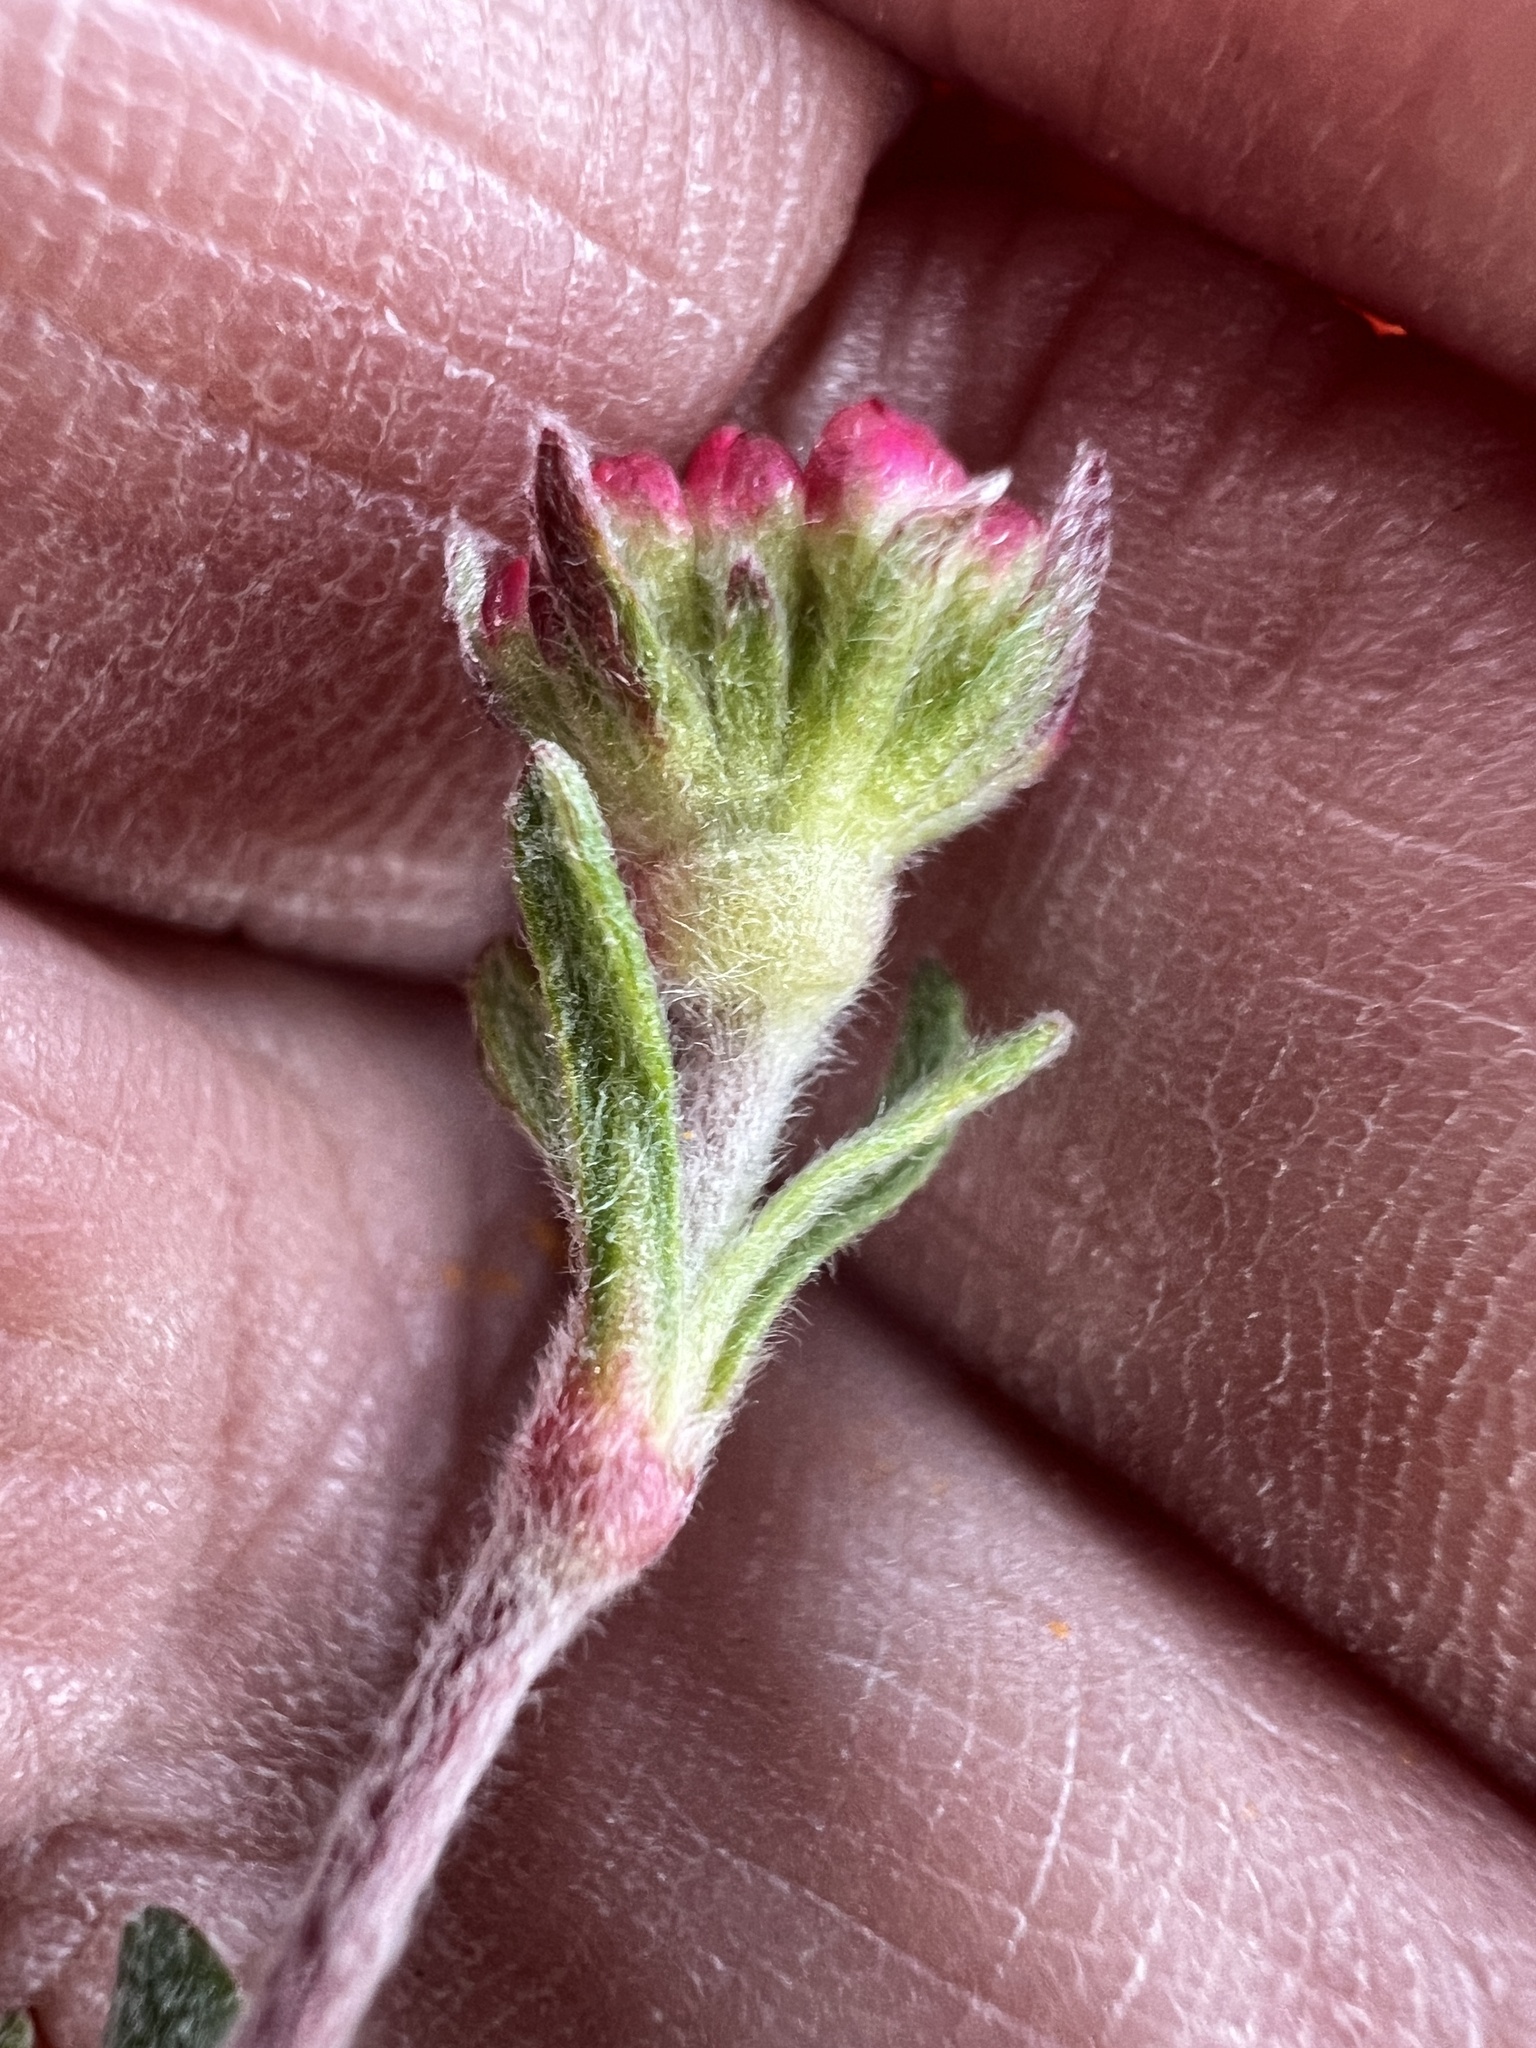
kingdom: Plantae
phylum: Tracheophyta
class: Magnoliopsida
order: Caryophyllales
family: Polygonaceae
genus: Eriogonum
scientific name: Eriogonum douglasii
